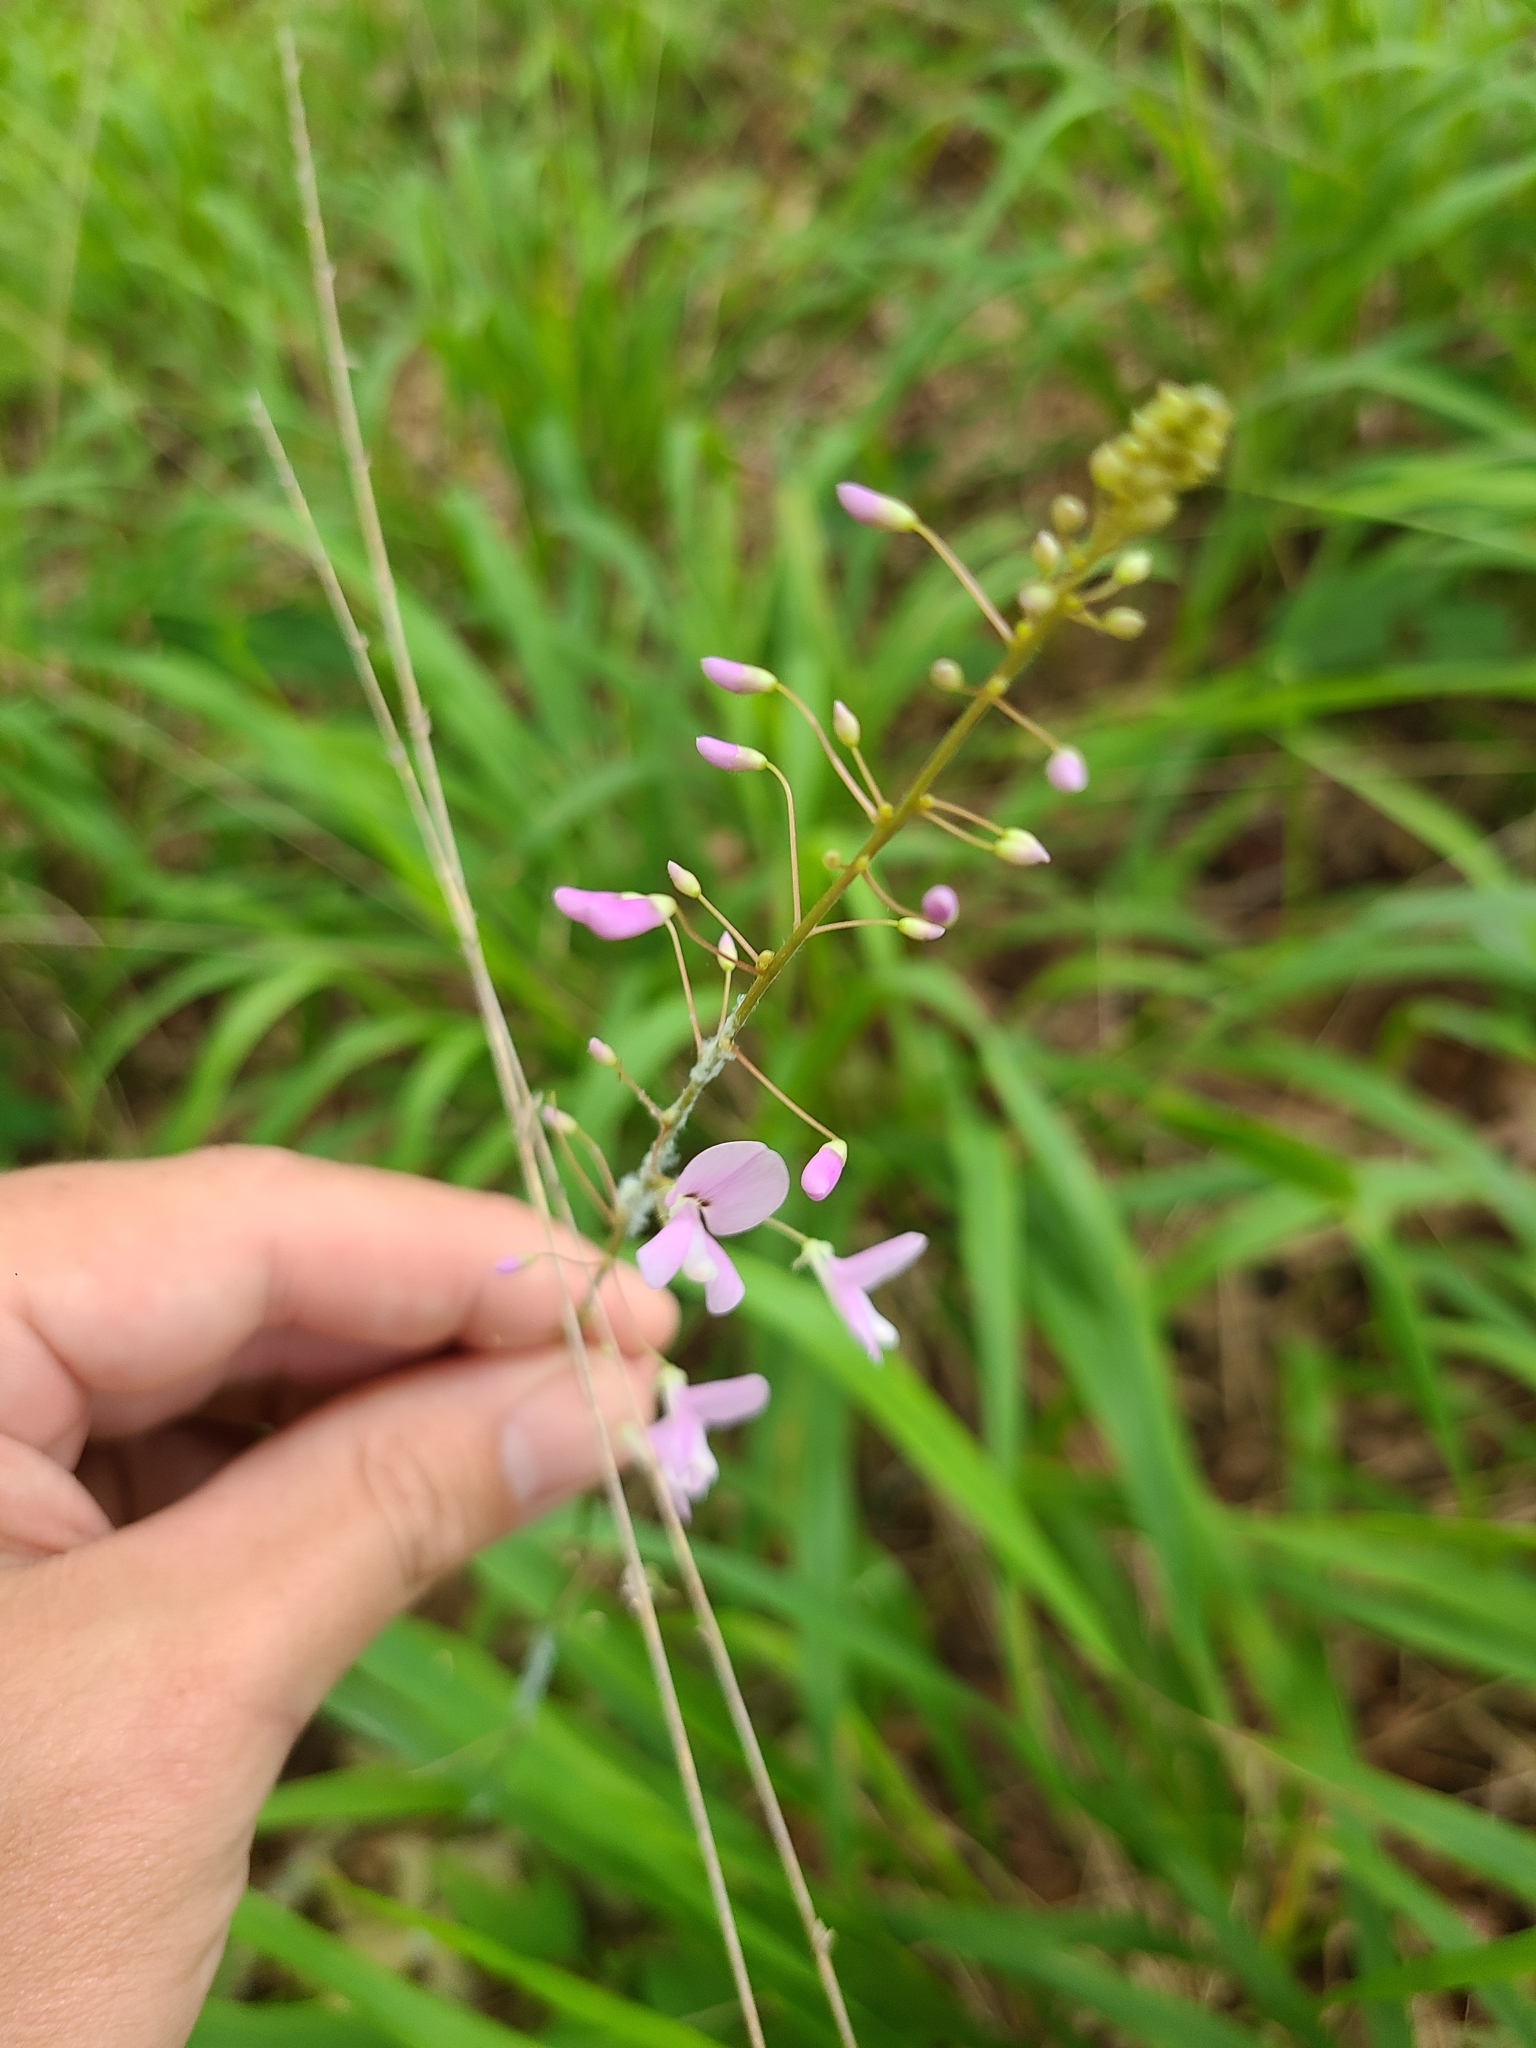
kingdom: Plantae
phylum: Tracheophyta
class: Magnoliopsida
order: Fabales
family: Fabaceae
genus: Hylodesmum
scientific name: Hylodesmum nudiflorum
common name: Bare-stemmed tick-trefoil
